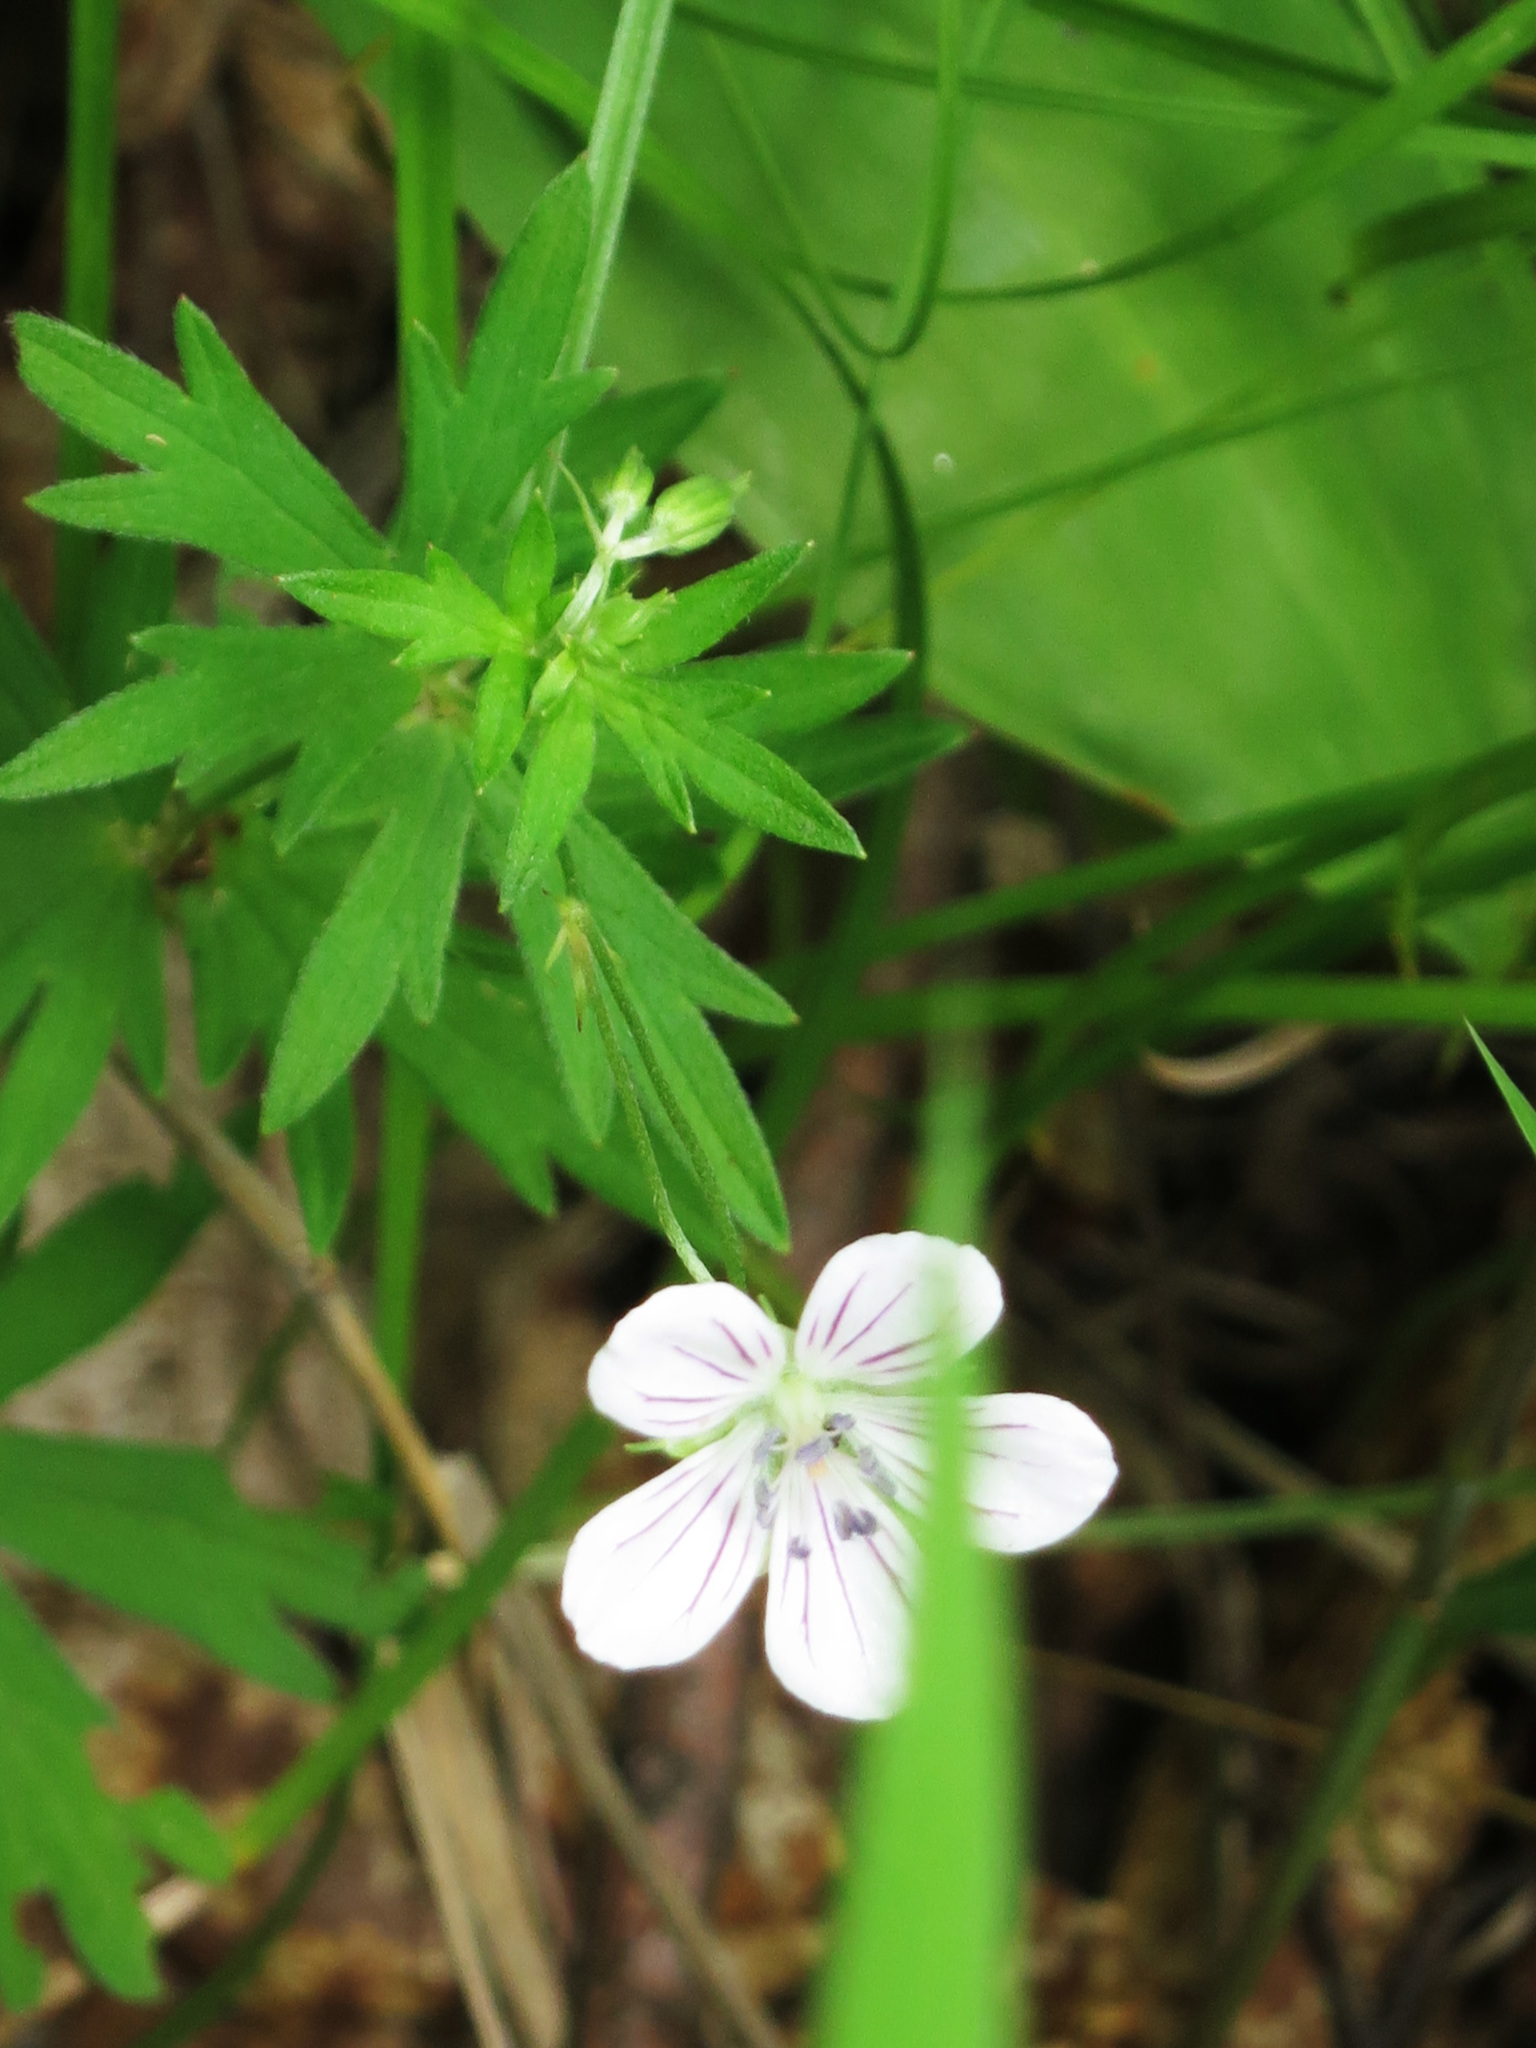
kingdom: Plantae
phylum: Tracheophyta
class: Magnoliopsida
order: Geraniales
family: Geraniaceae
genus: Geranium
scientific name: Geranium dahuricum
